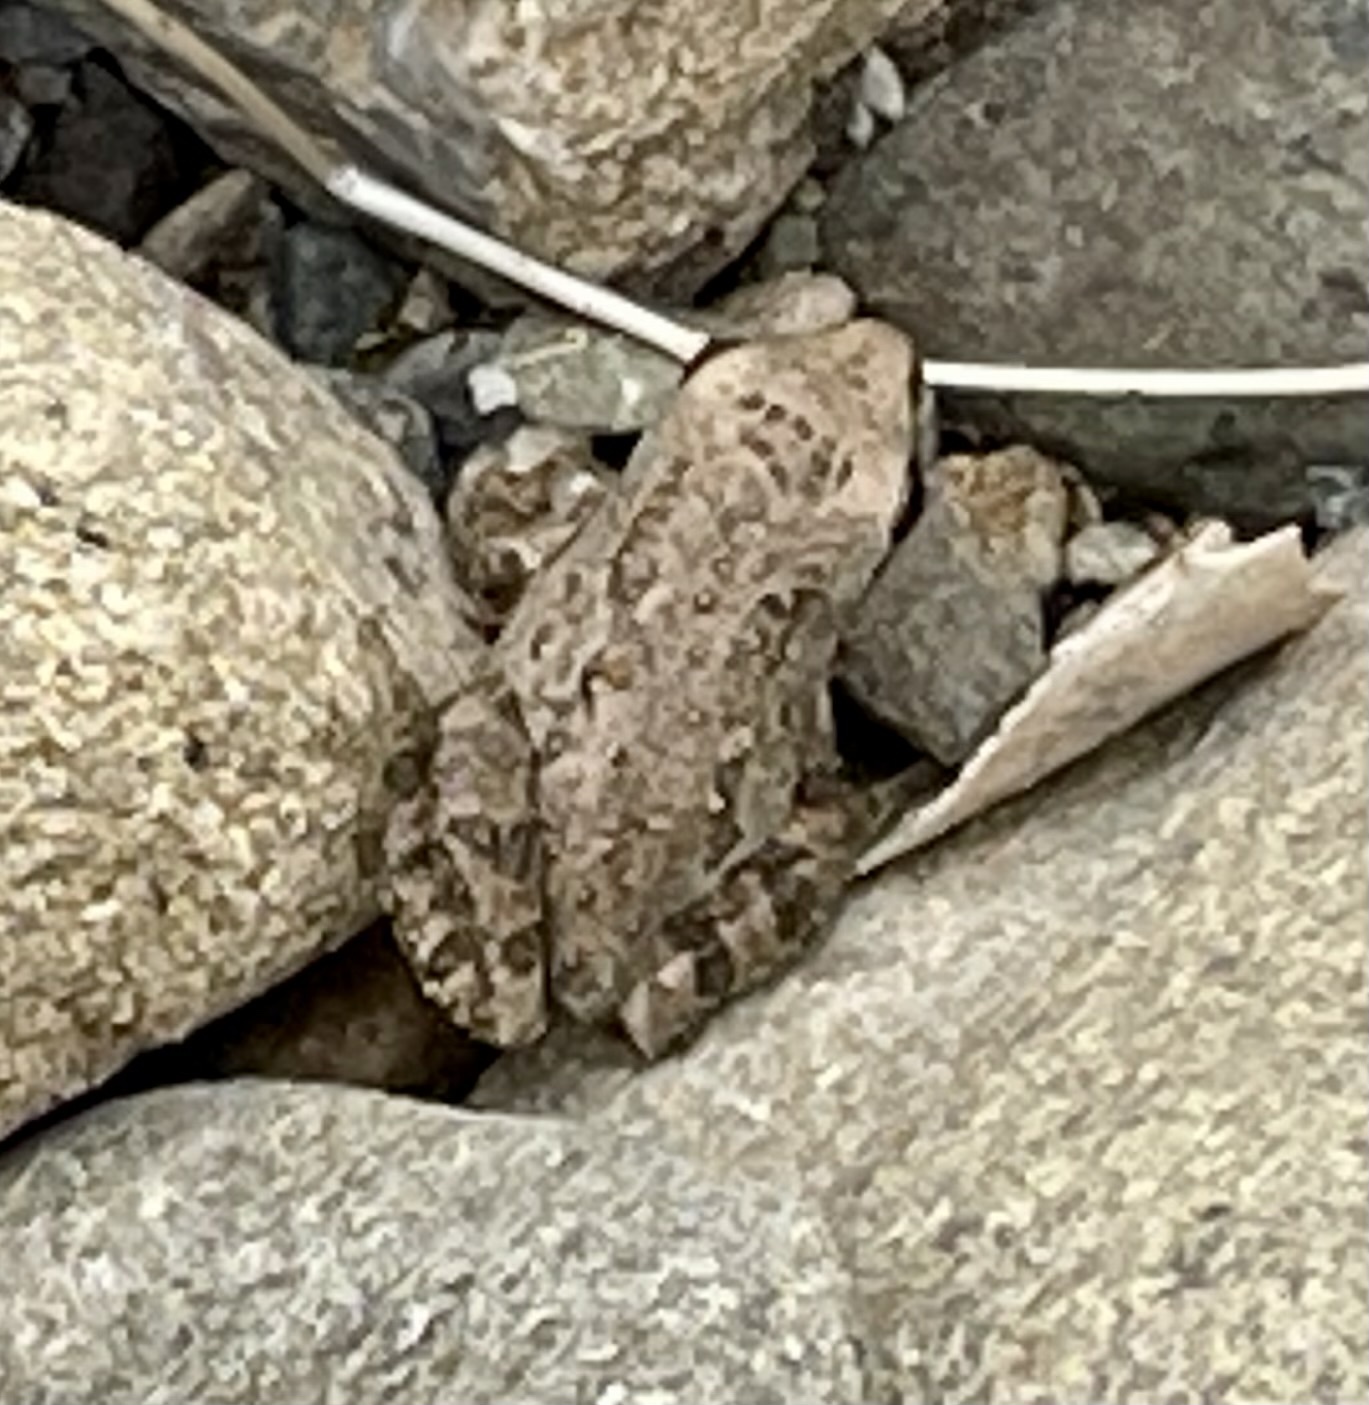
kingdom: Animalia
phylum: Chordata
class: Amphibia
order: Anura
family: Hylidae
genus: Pseudacris
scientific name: Pseudacris regilla
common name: Pacific chorus frog
